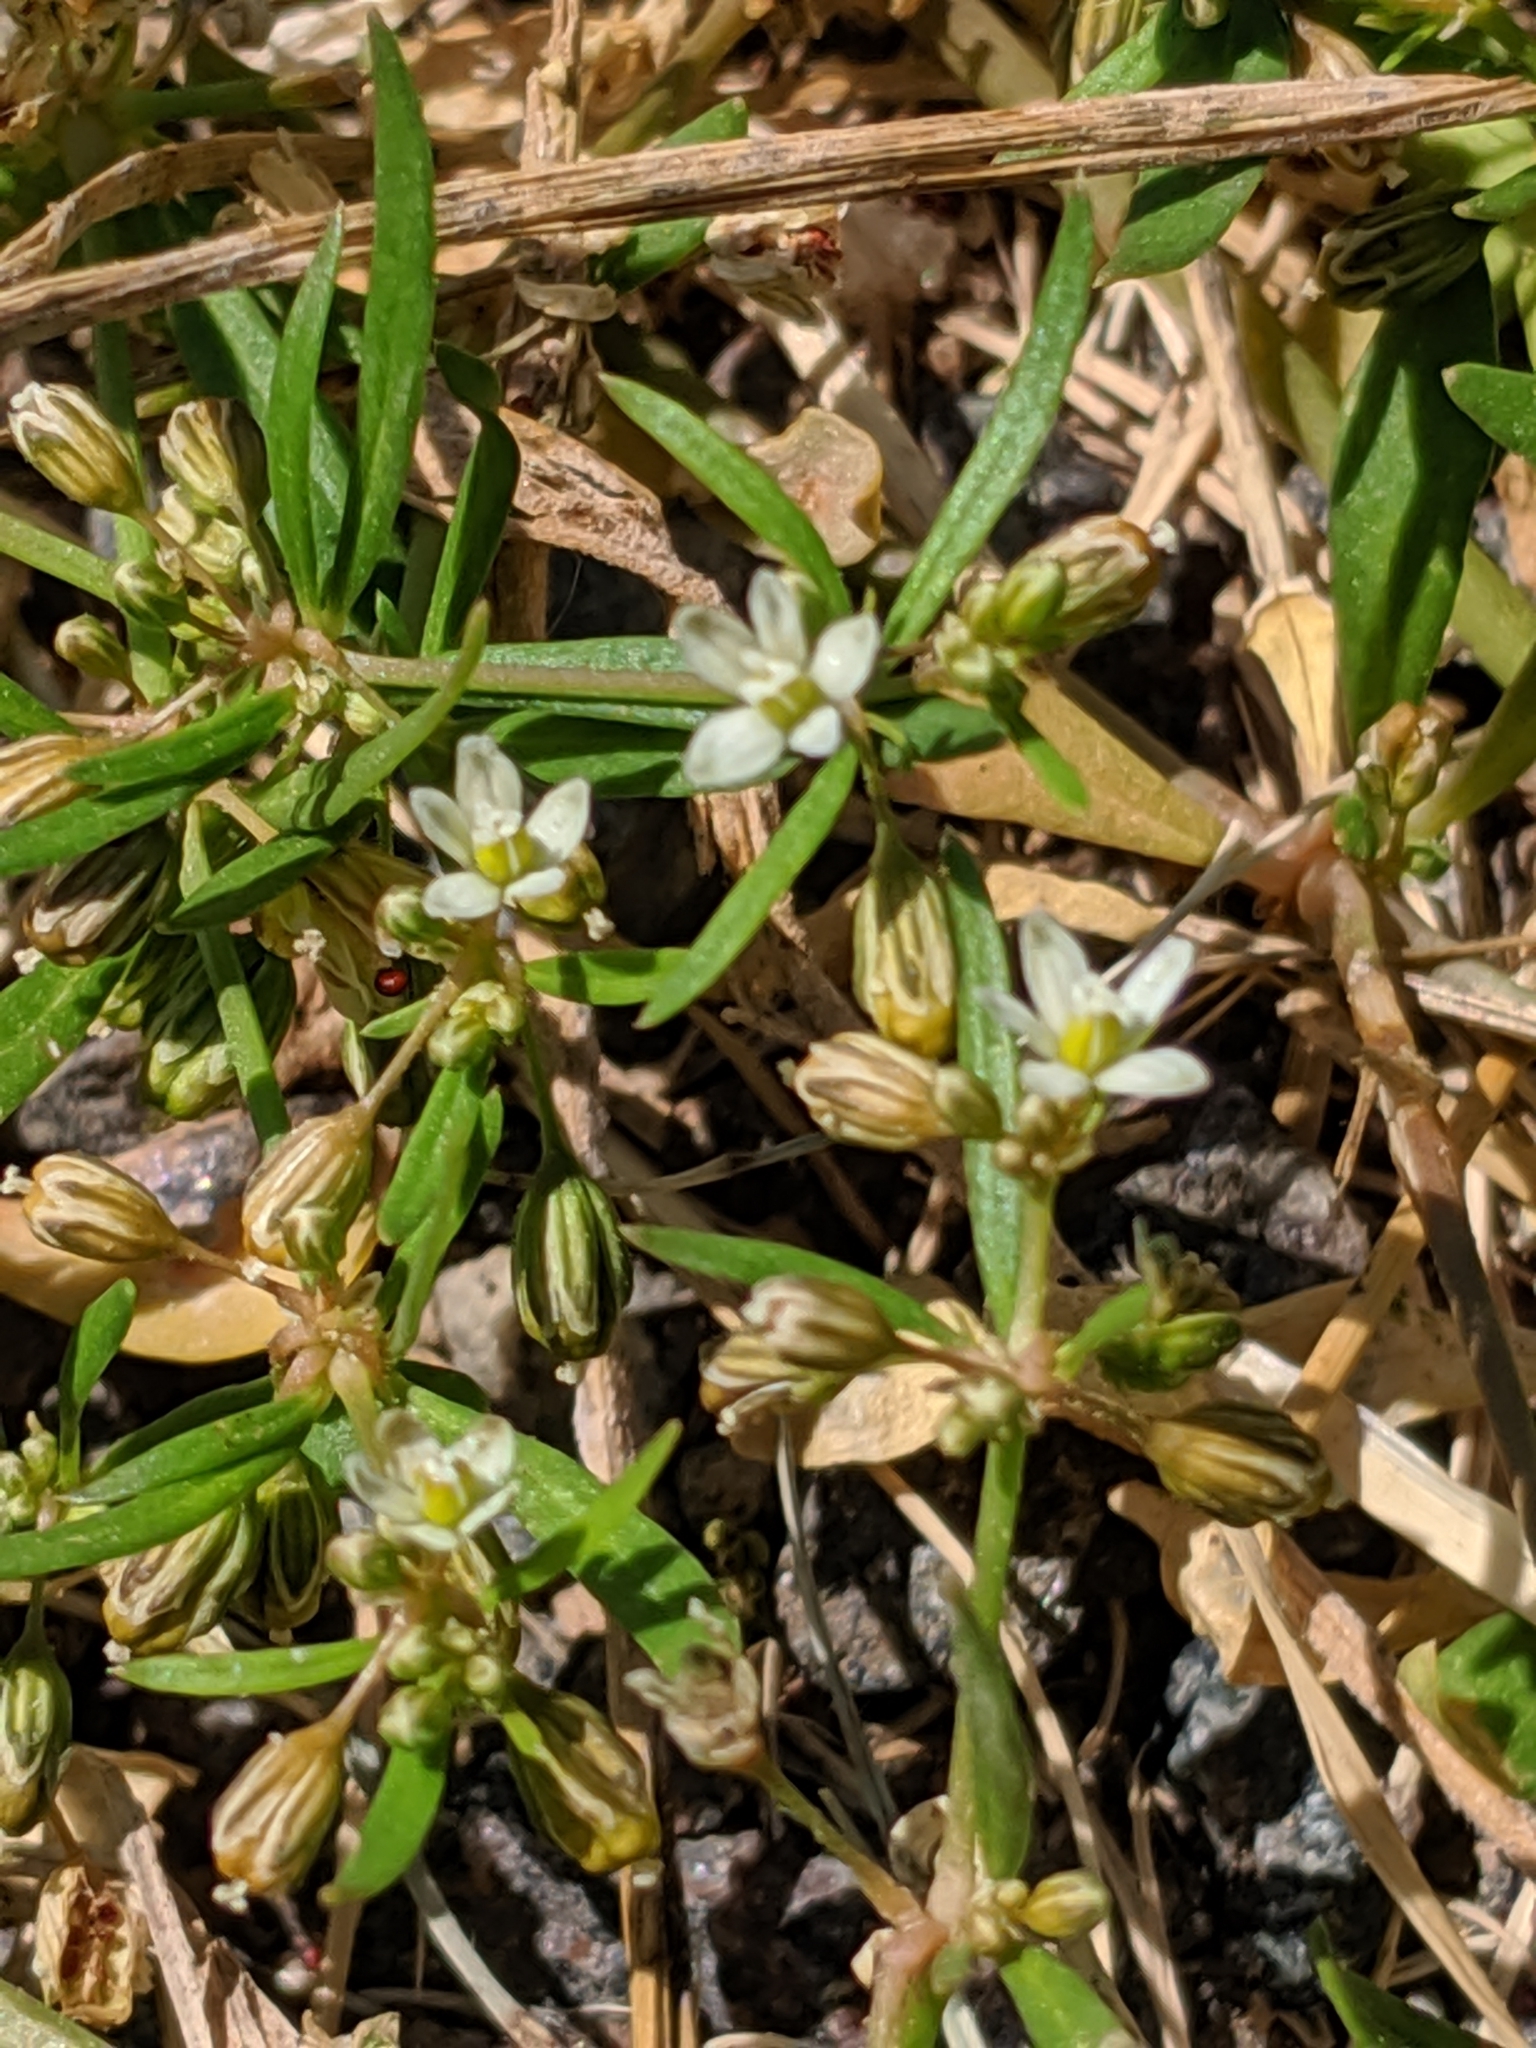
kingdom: Plantae
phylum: Tracheophyta
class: Magnoliopsida
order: Caryophyllales
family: Molluginaceae
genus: Mollugo
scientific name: Mollugo verticillata
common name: Green carpetweed
